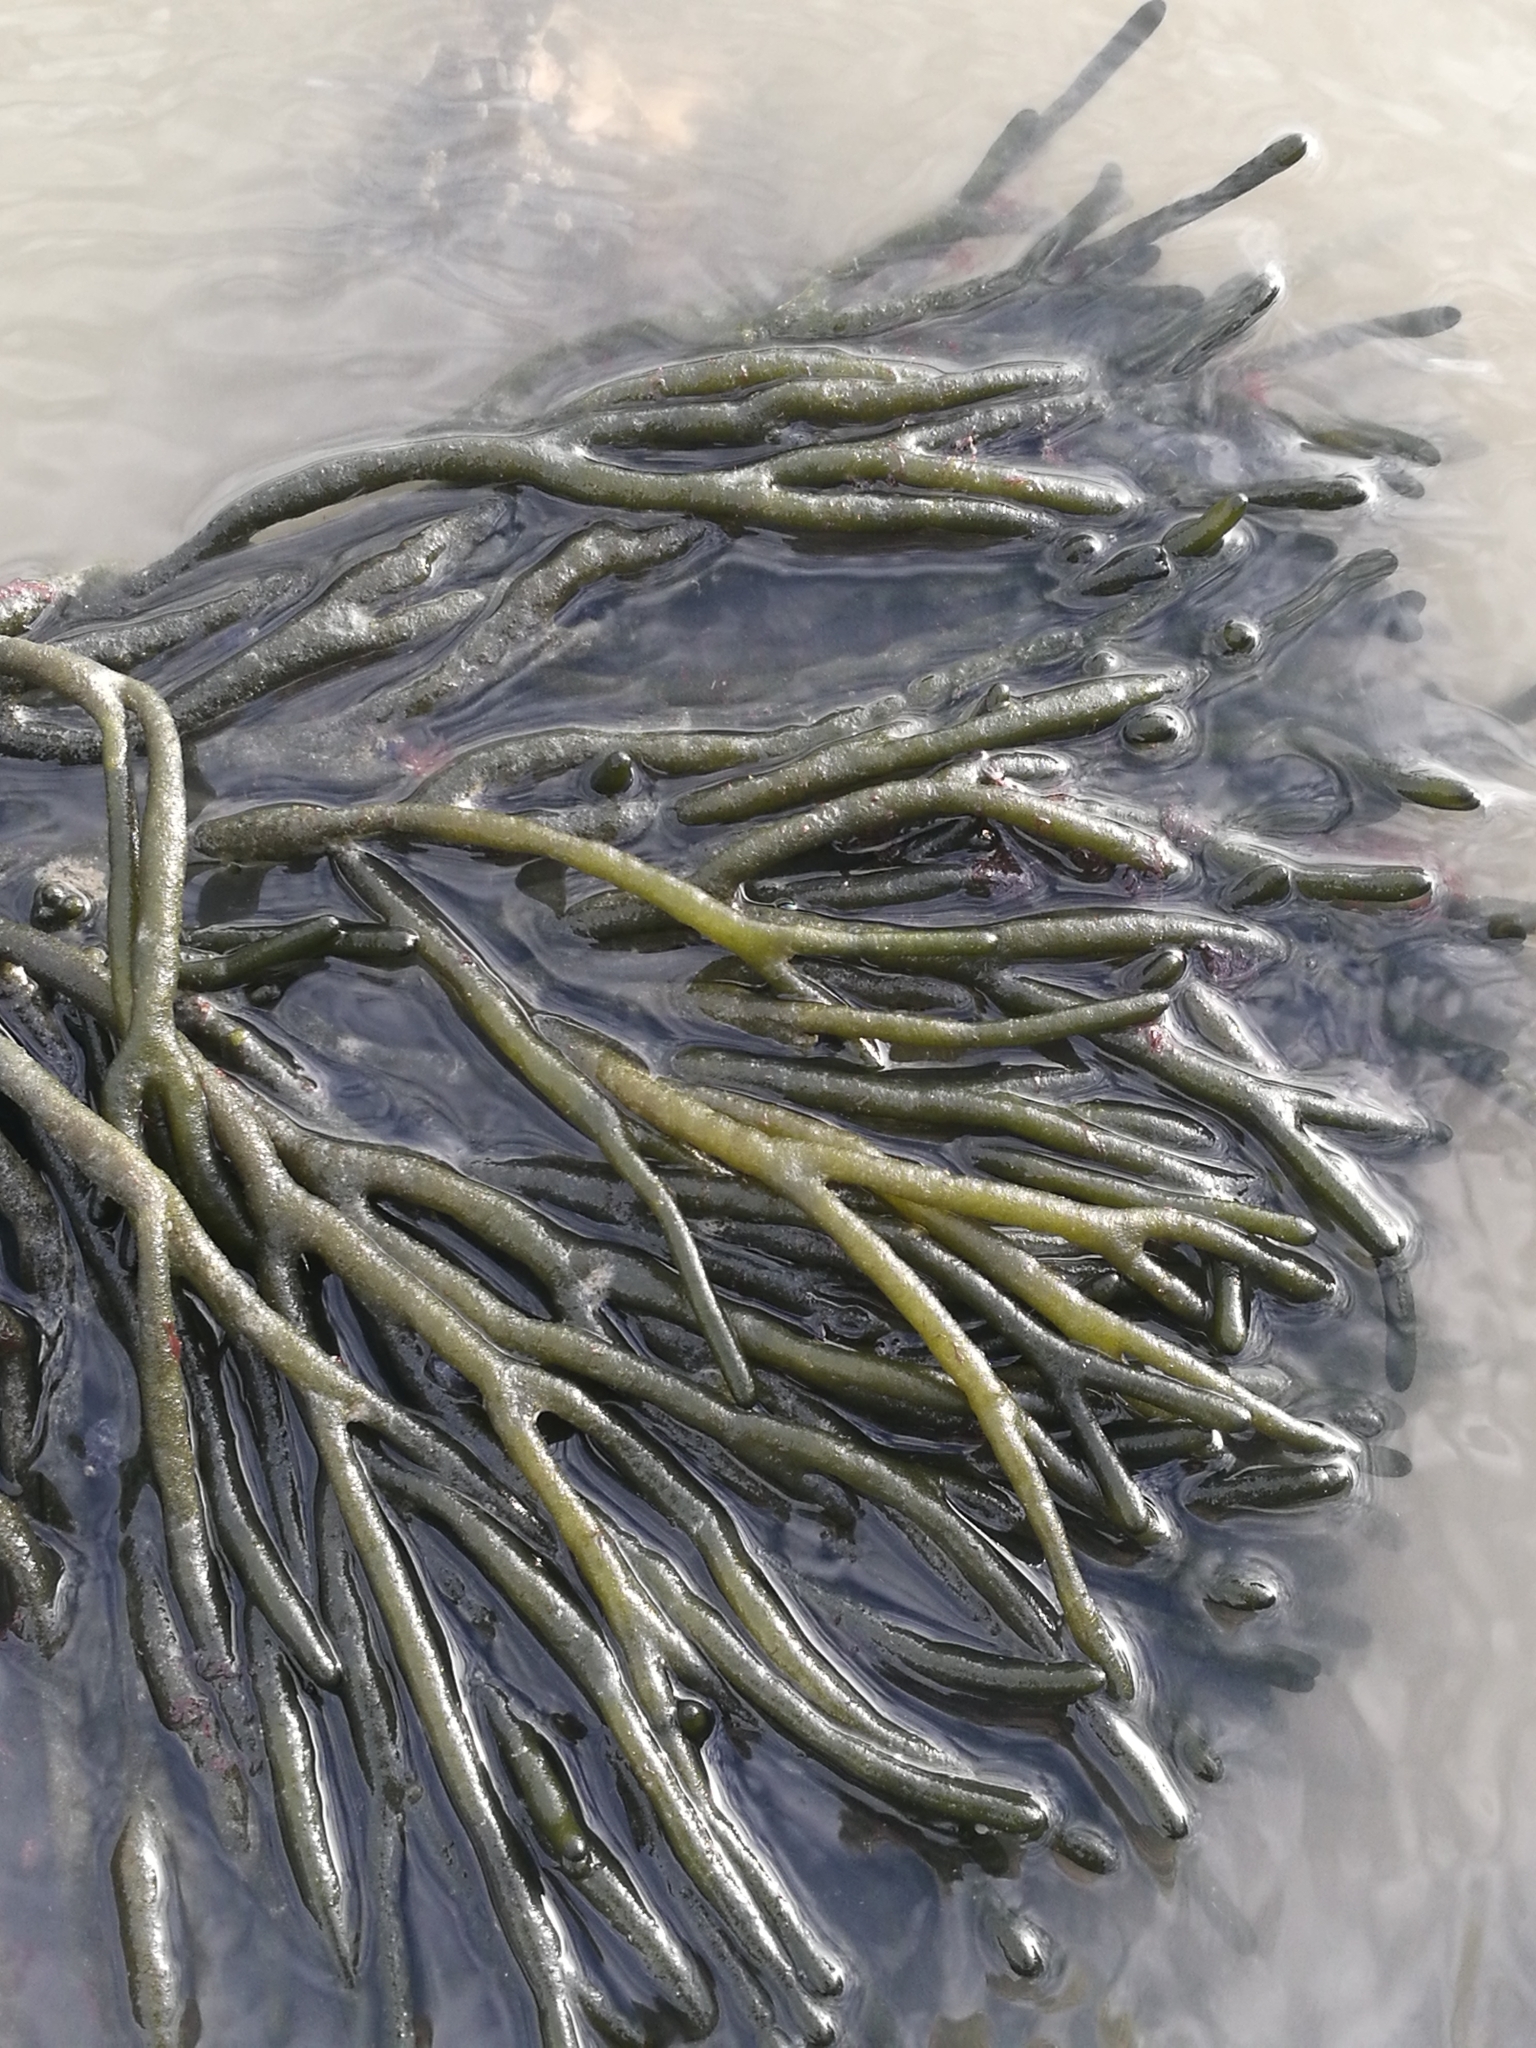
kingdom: Plantae
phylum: Chlorophyta
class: Ulvophyceae
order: Bryopsidales
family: Codiaceae
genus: Codium
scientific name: Codium fragile
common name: Dead man's fingers
